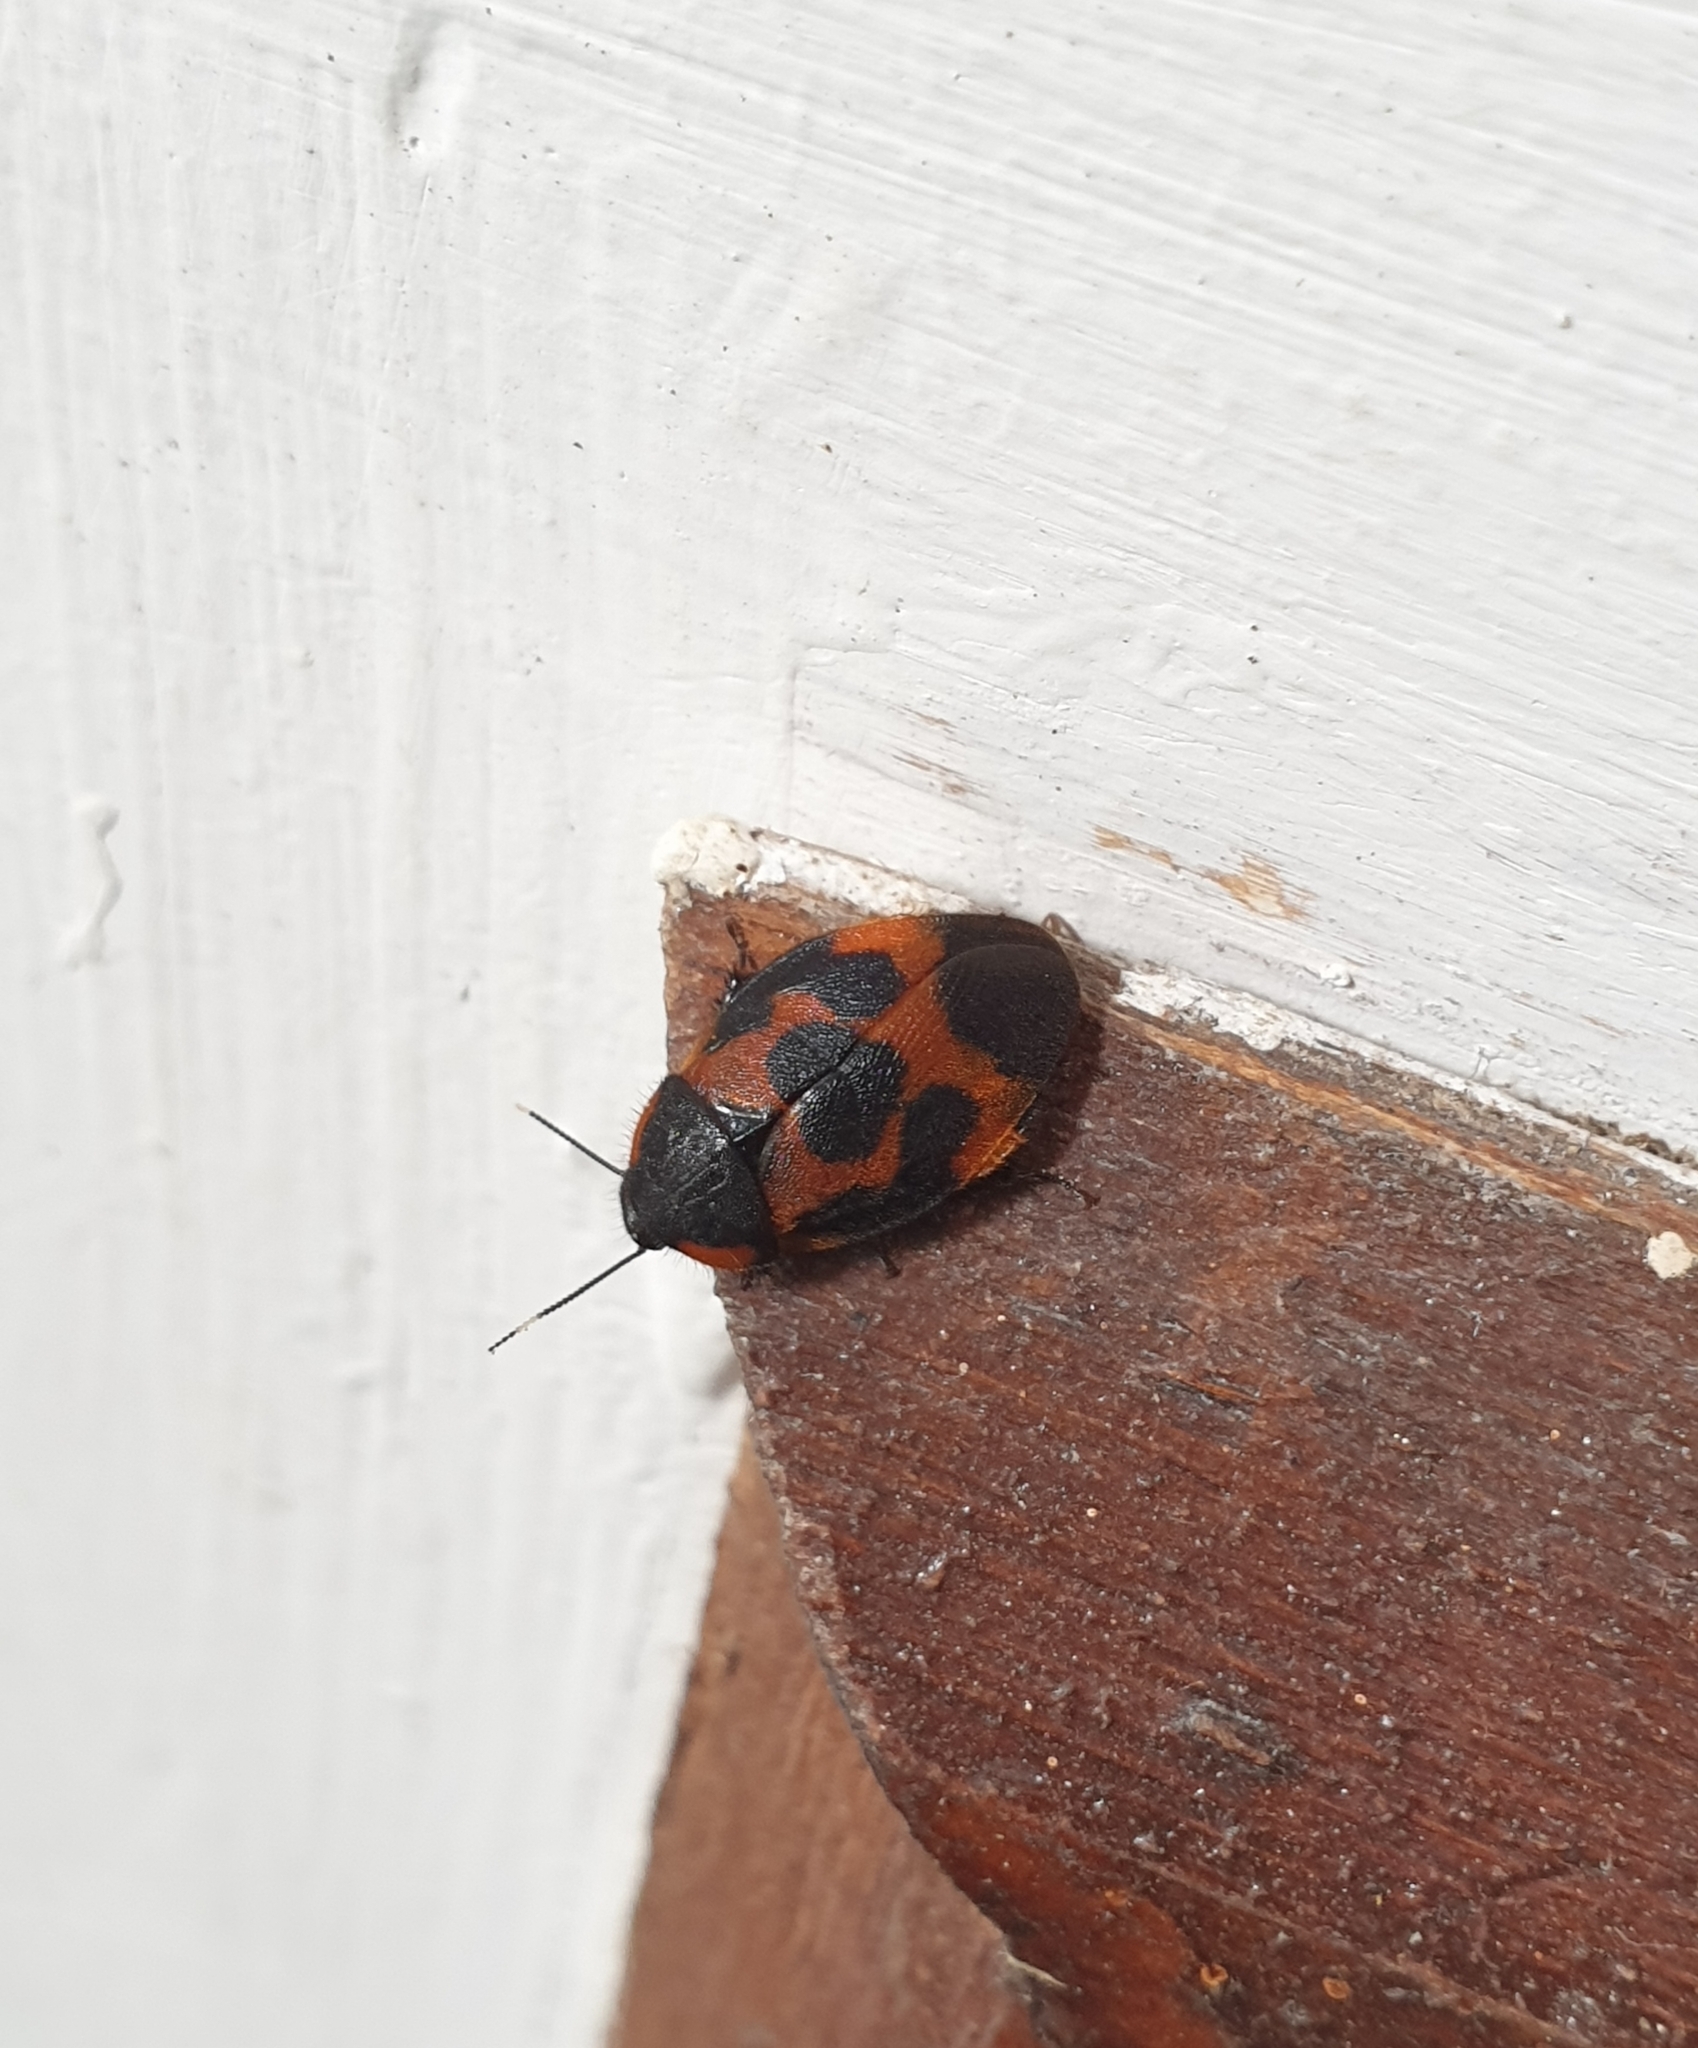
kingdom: Animalia
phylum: Arthropoda
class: Insecta
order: Blattodea
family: Corydiidae
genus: Eucorydia
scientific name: Eucorydia ornata
